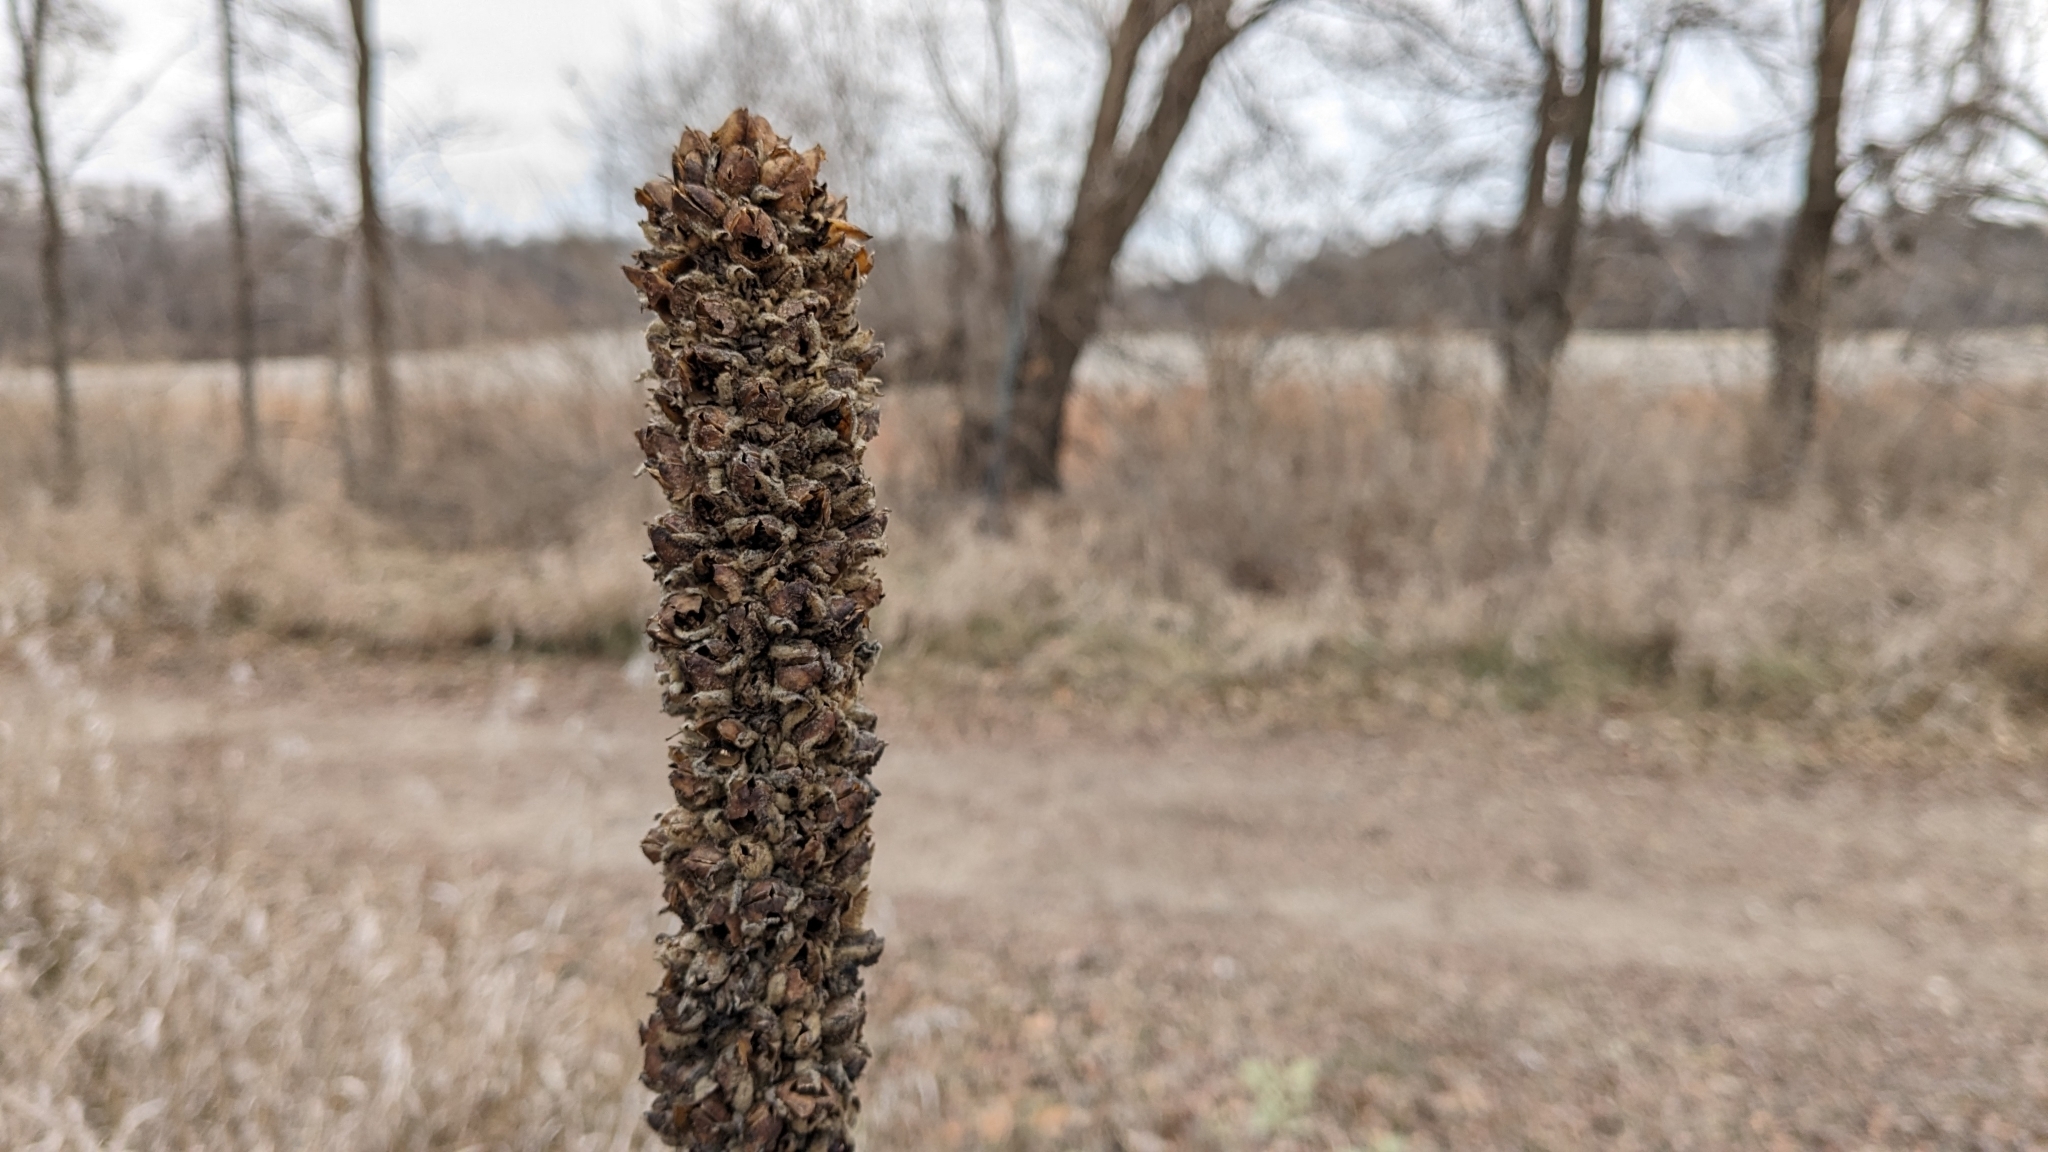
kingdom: Plantae
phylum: Tracheophyta
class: Magnoliopsida
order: Lamiales
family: Scrophulariaceae
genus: Verbascum
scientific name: Verbascum thapsus
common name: Common mullein
